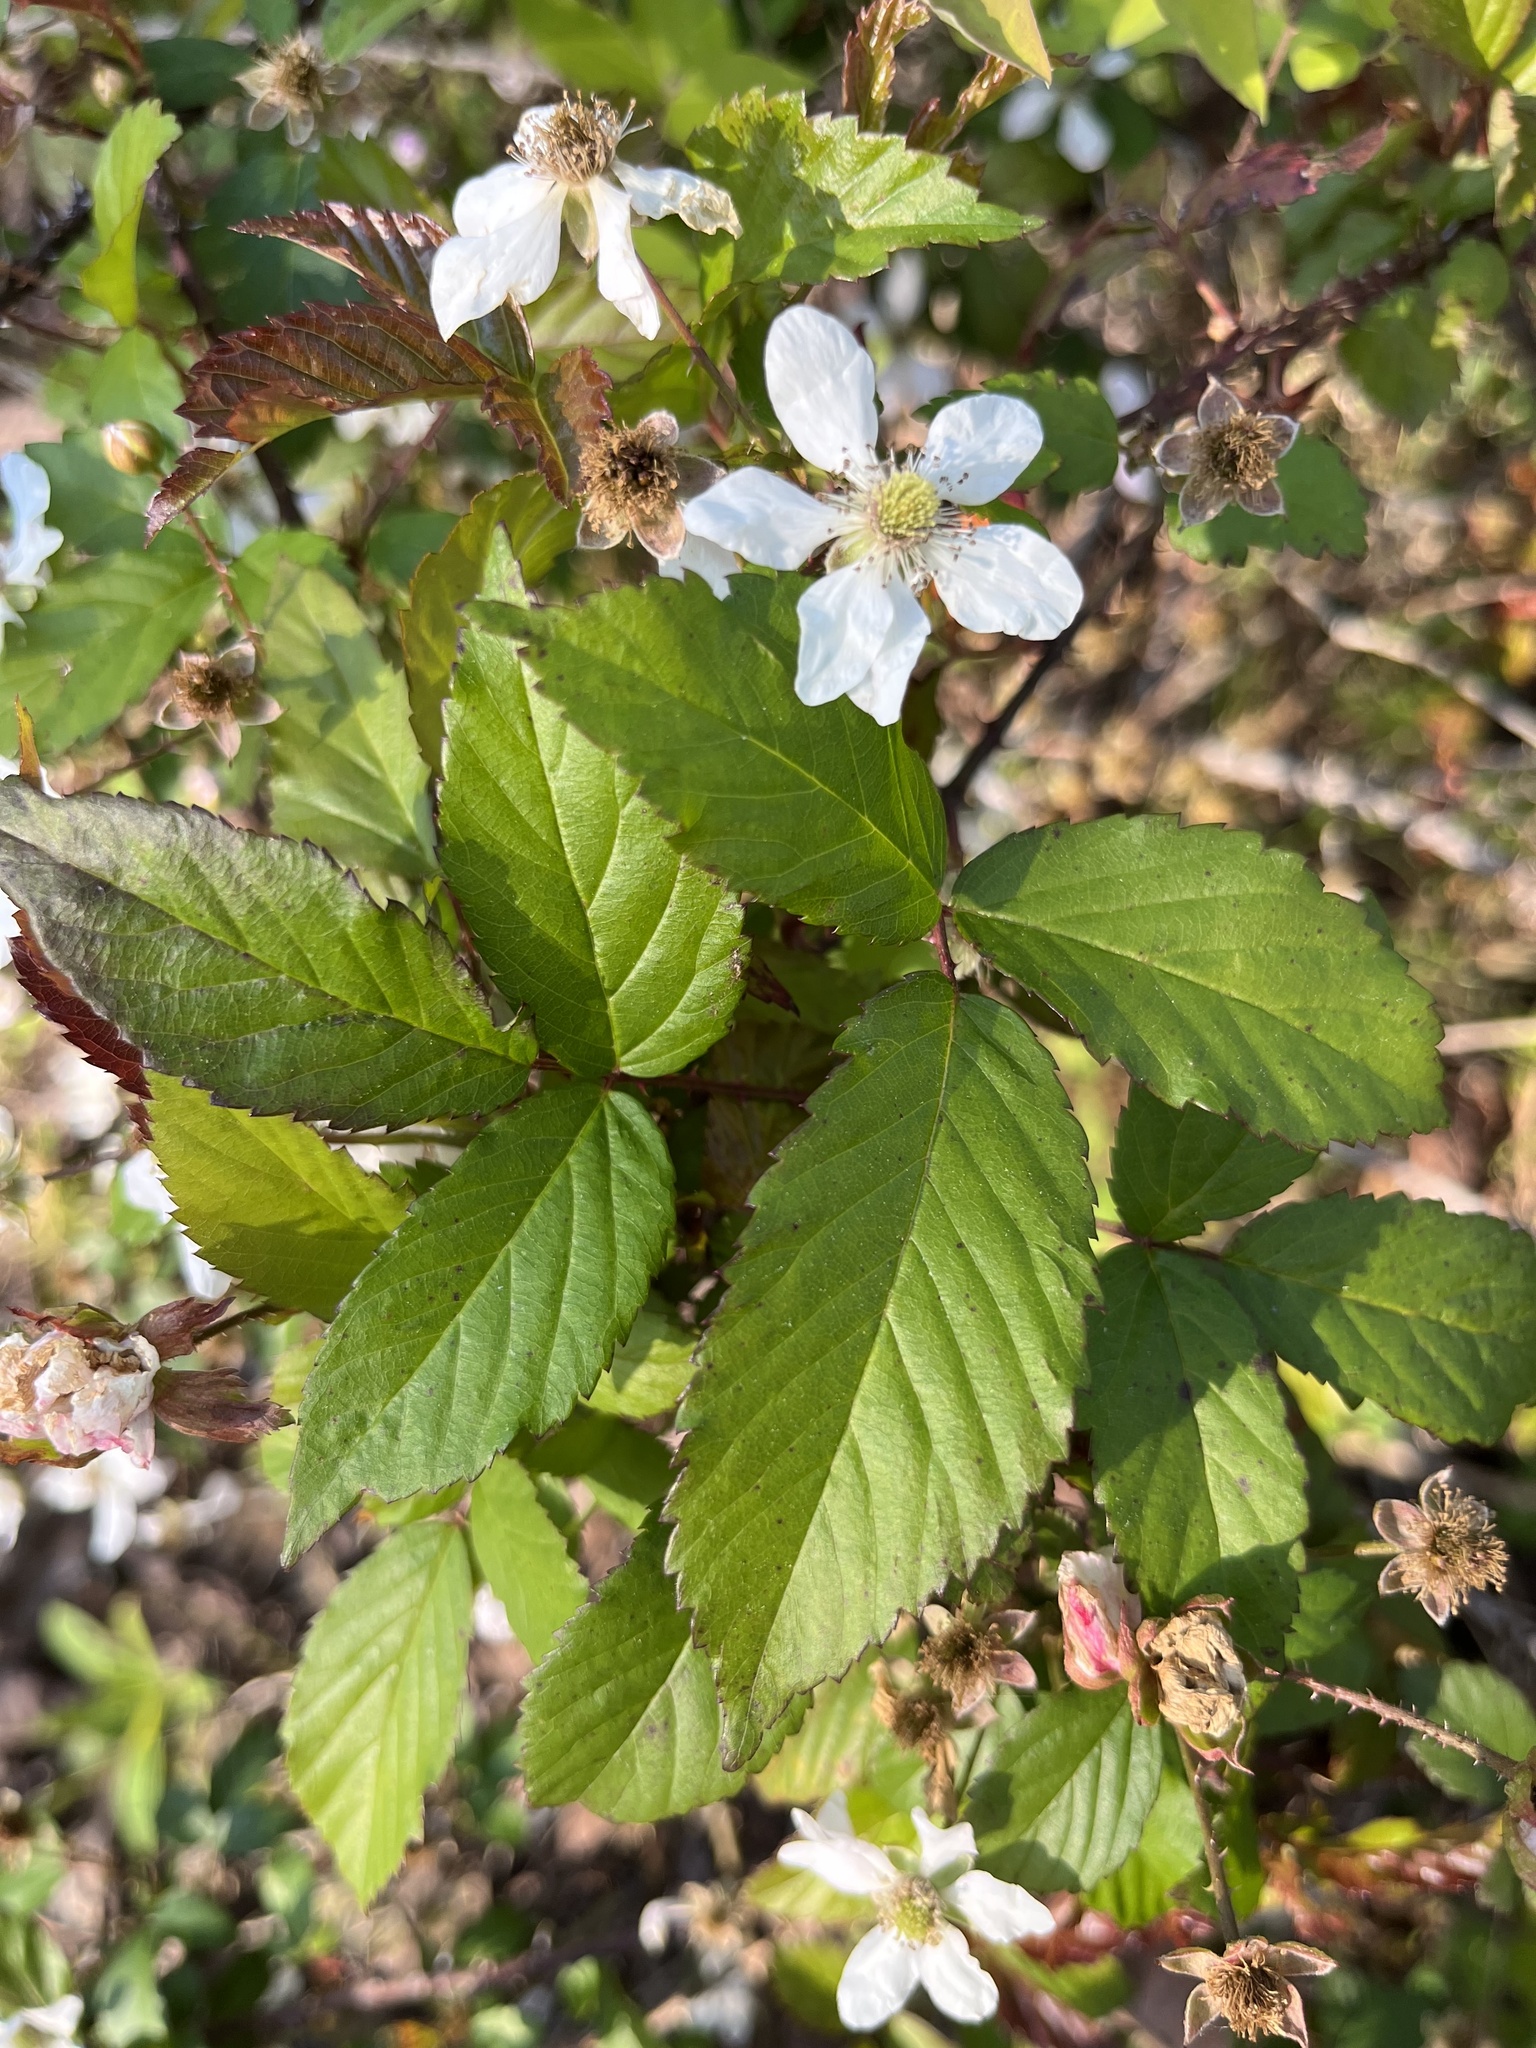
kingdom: Plantae
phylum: Tracheophyta
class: Magnoliopsida
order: Rosales
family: Rosaceae
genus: Rubus
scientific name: Rubus trivialis
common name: Southern dewberry
